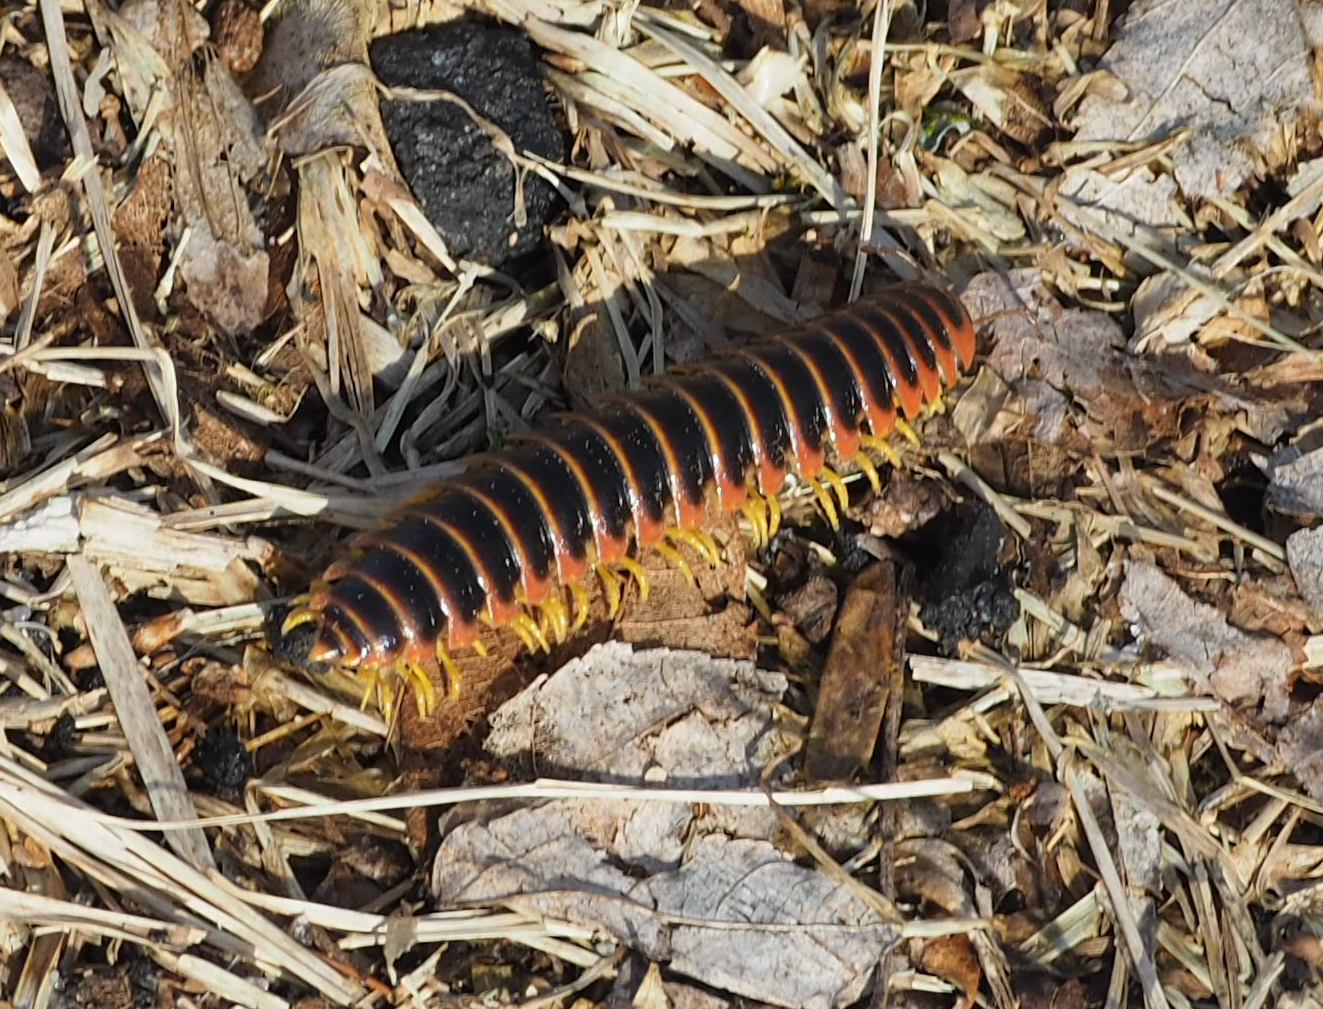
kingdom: Animalia
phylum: Arthropoda
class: Diplopoda
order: Polydesmida
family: Xystodesmidae
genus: Apheloria
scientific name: Apheloria virginiensis
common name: Black-and-gold flat millipede
